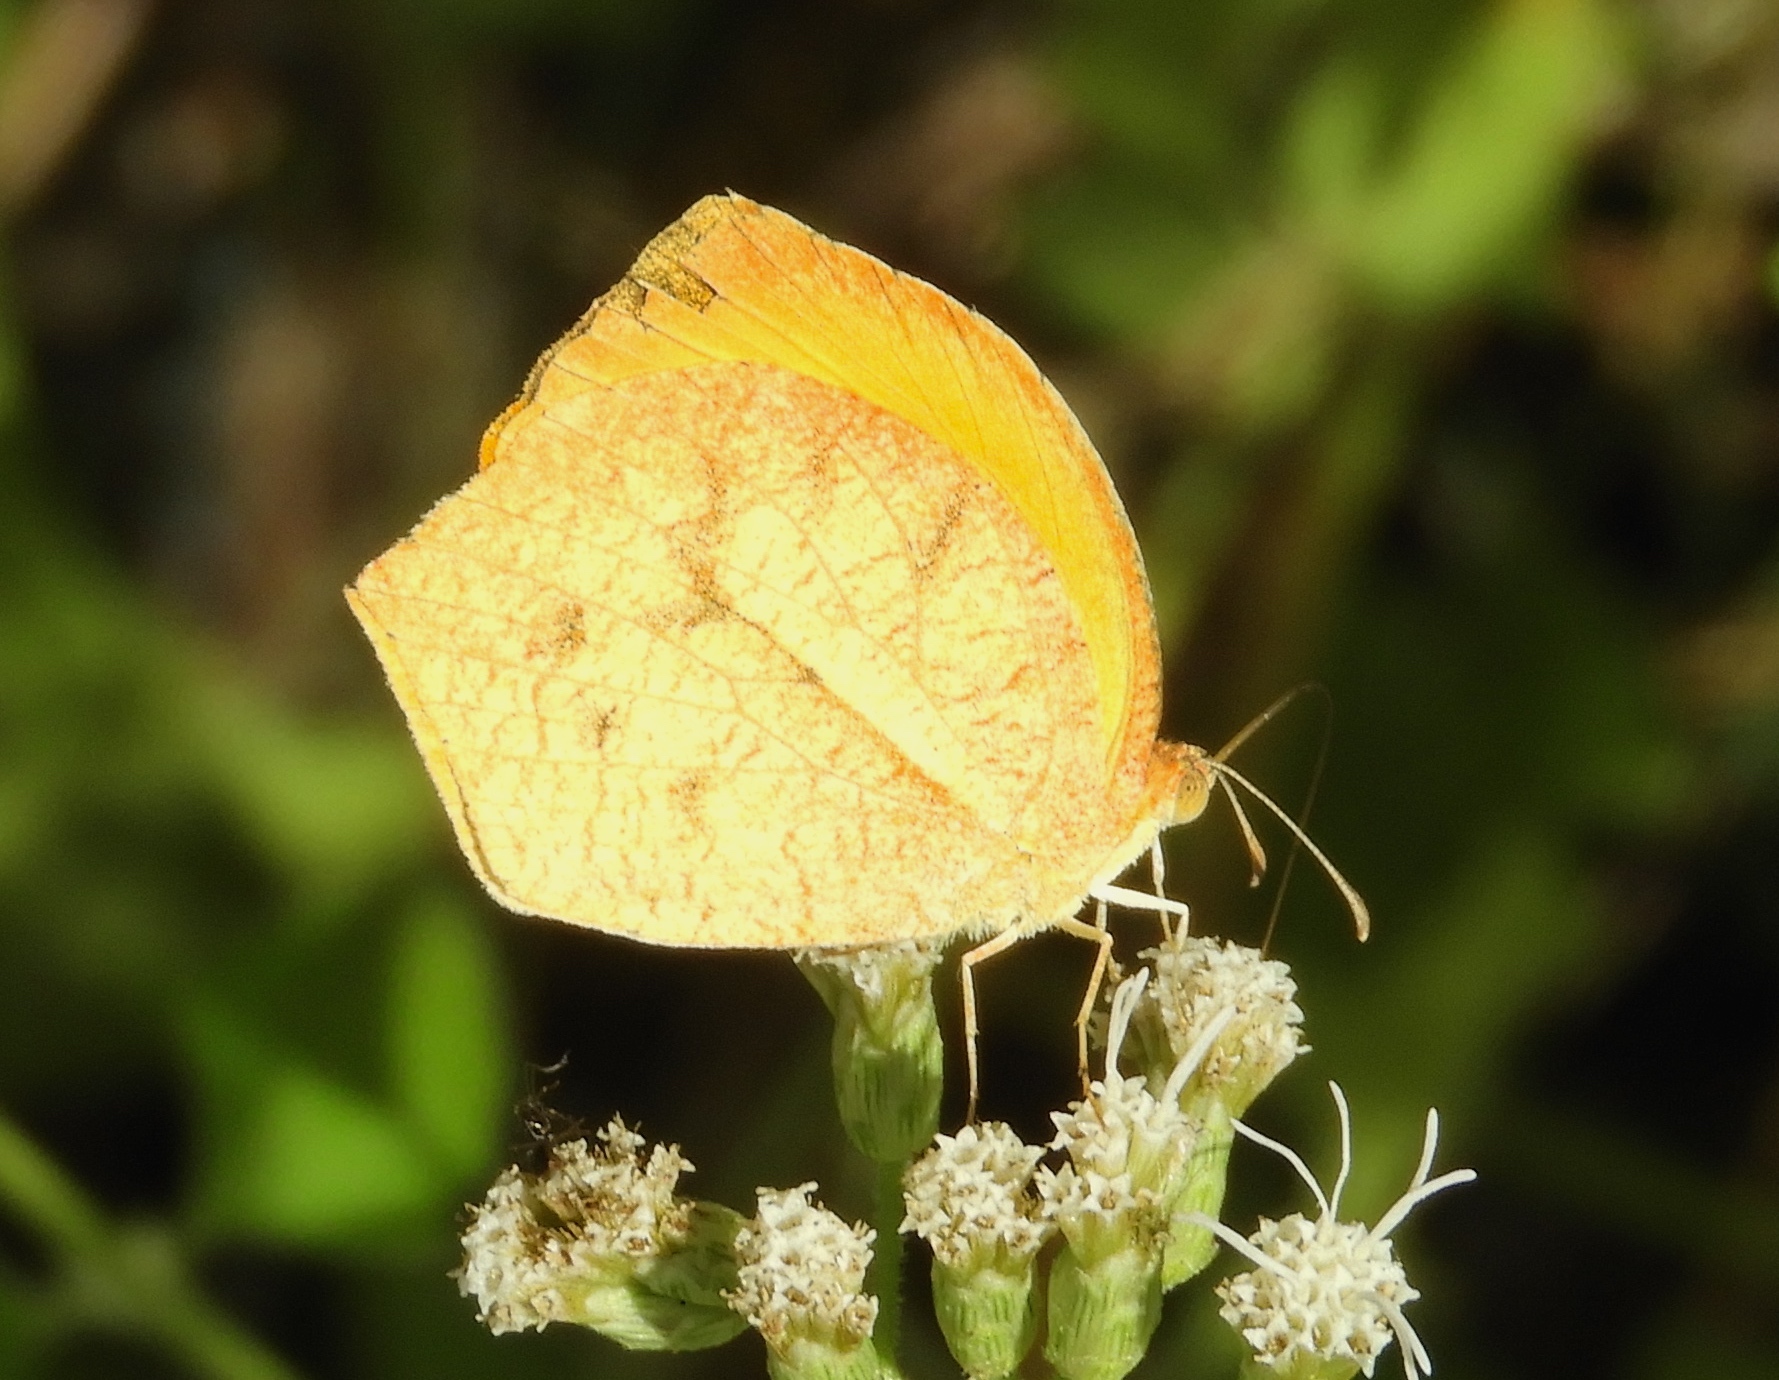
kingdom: Animalia
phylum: Arthropoda
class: Insecta
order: Lepidoptera
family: Pieridae
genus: Pyrisitia
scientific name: Pyrisitia proterpia
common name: Tailed orange
